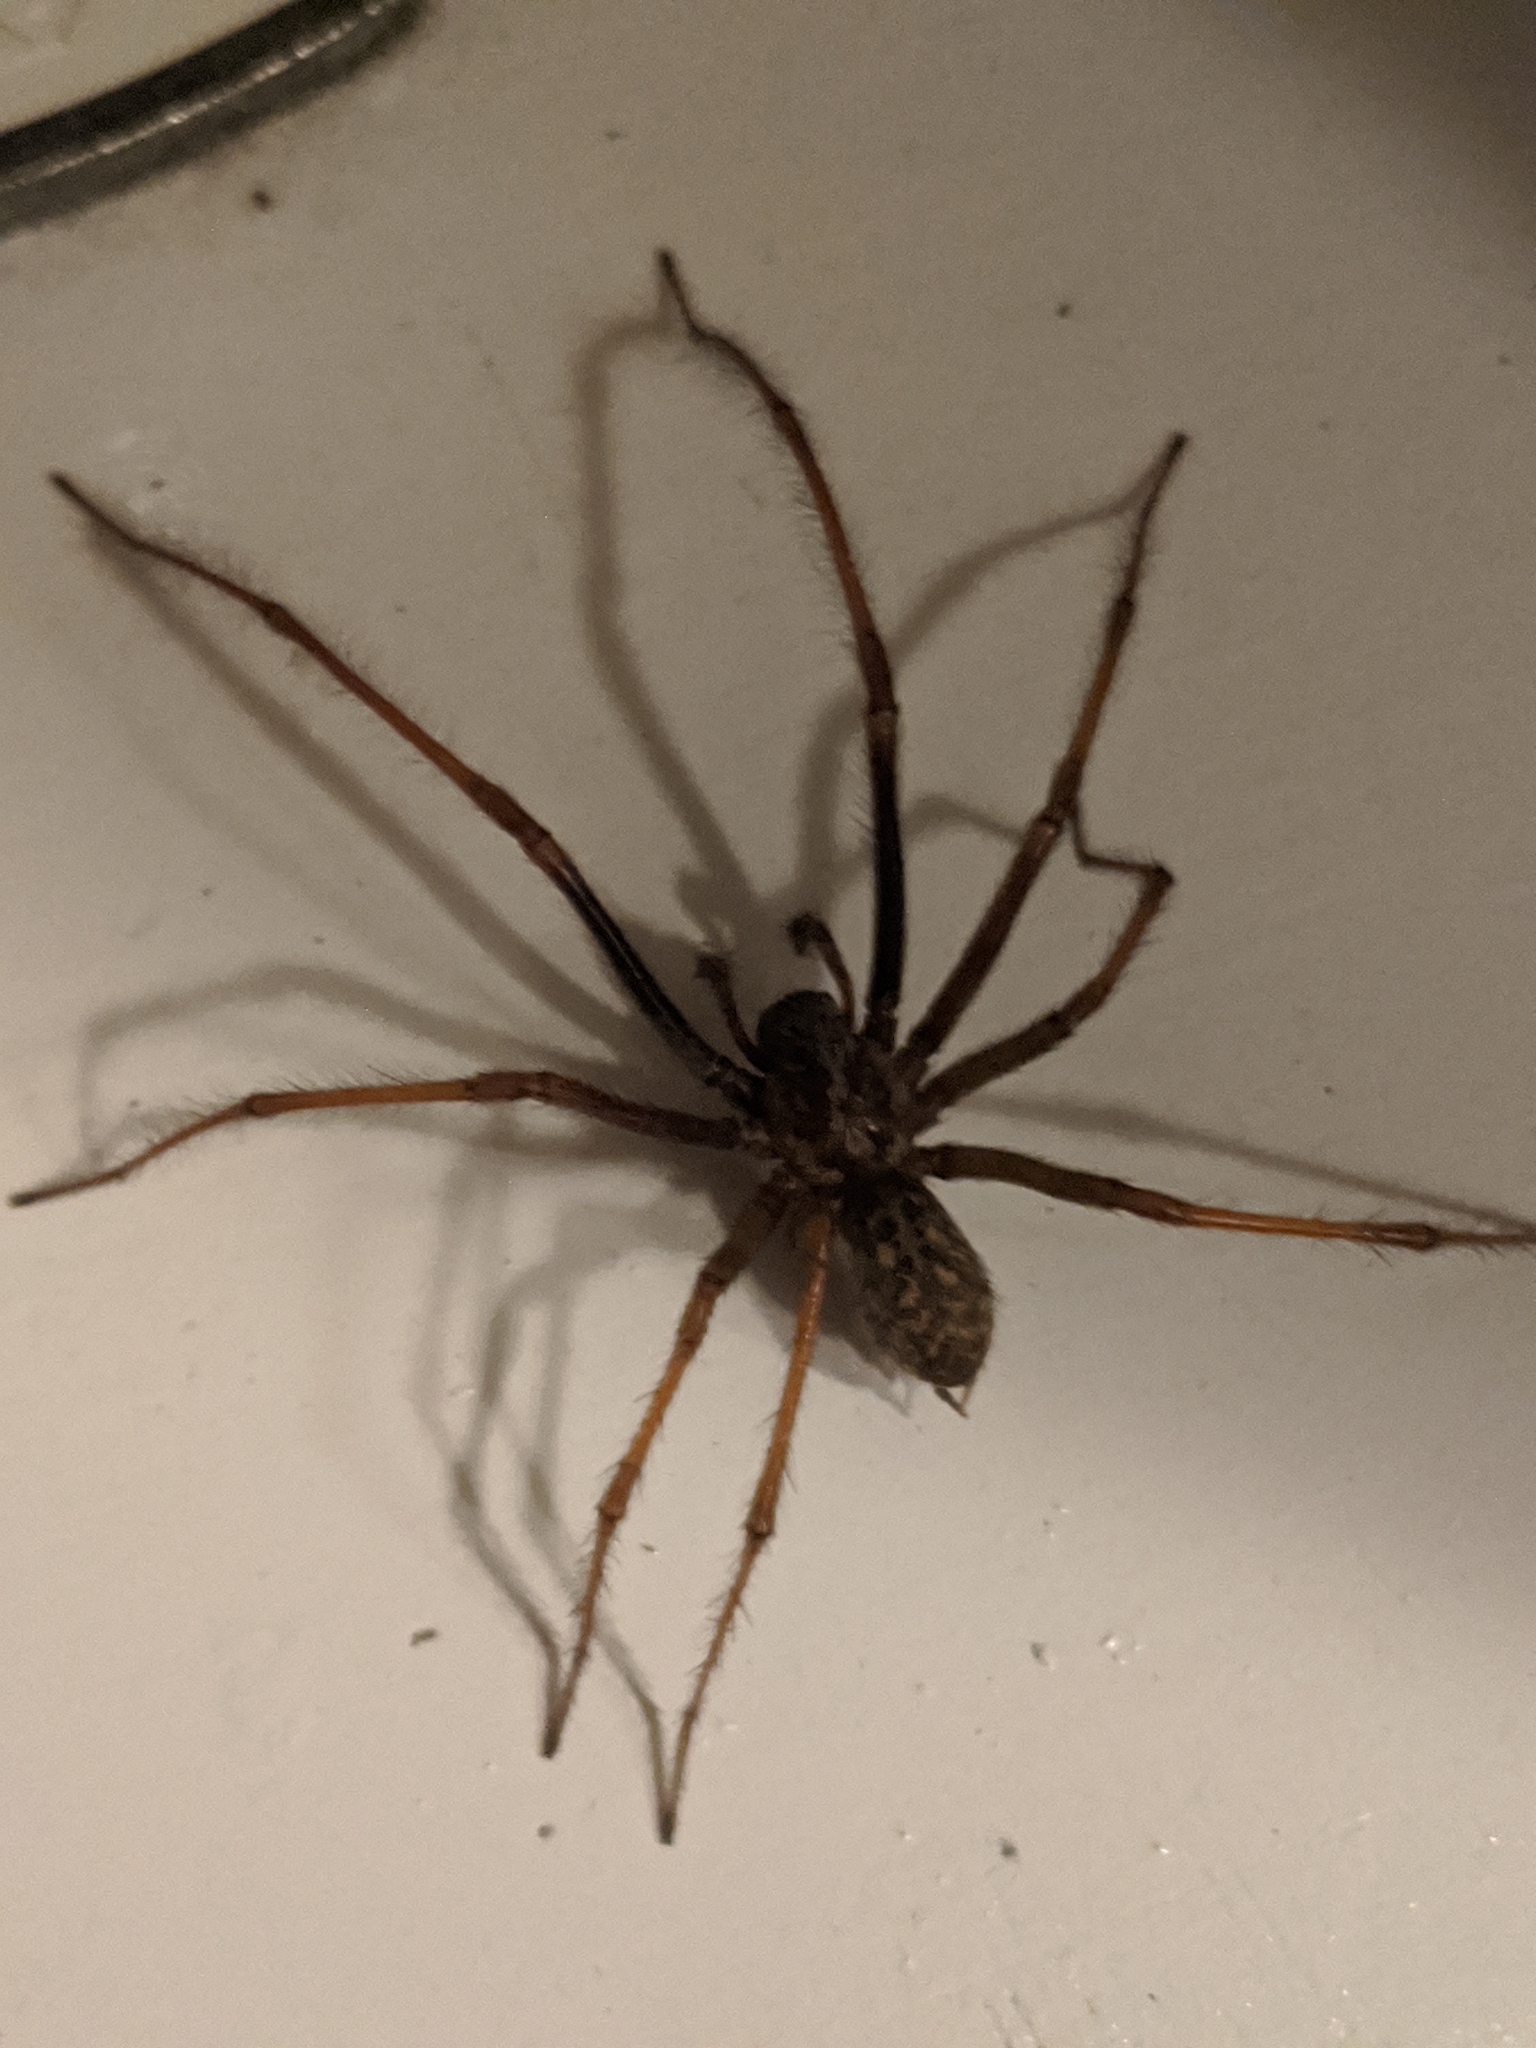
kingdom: Animalia
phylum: Arthropoda
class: Arachnida
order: Araneae
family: Agelenidae
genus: Eratigena
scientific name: Eratigena duellica
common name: Giant house spider
